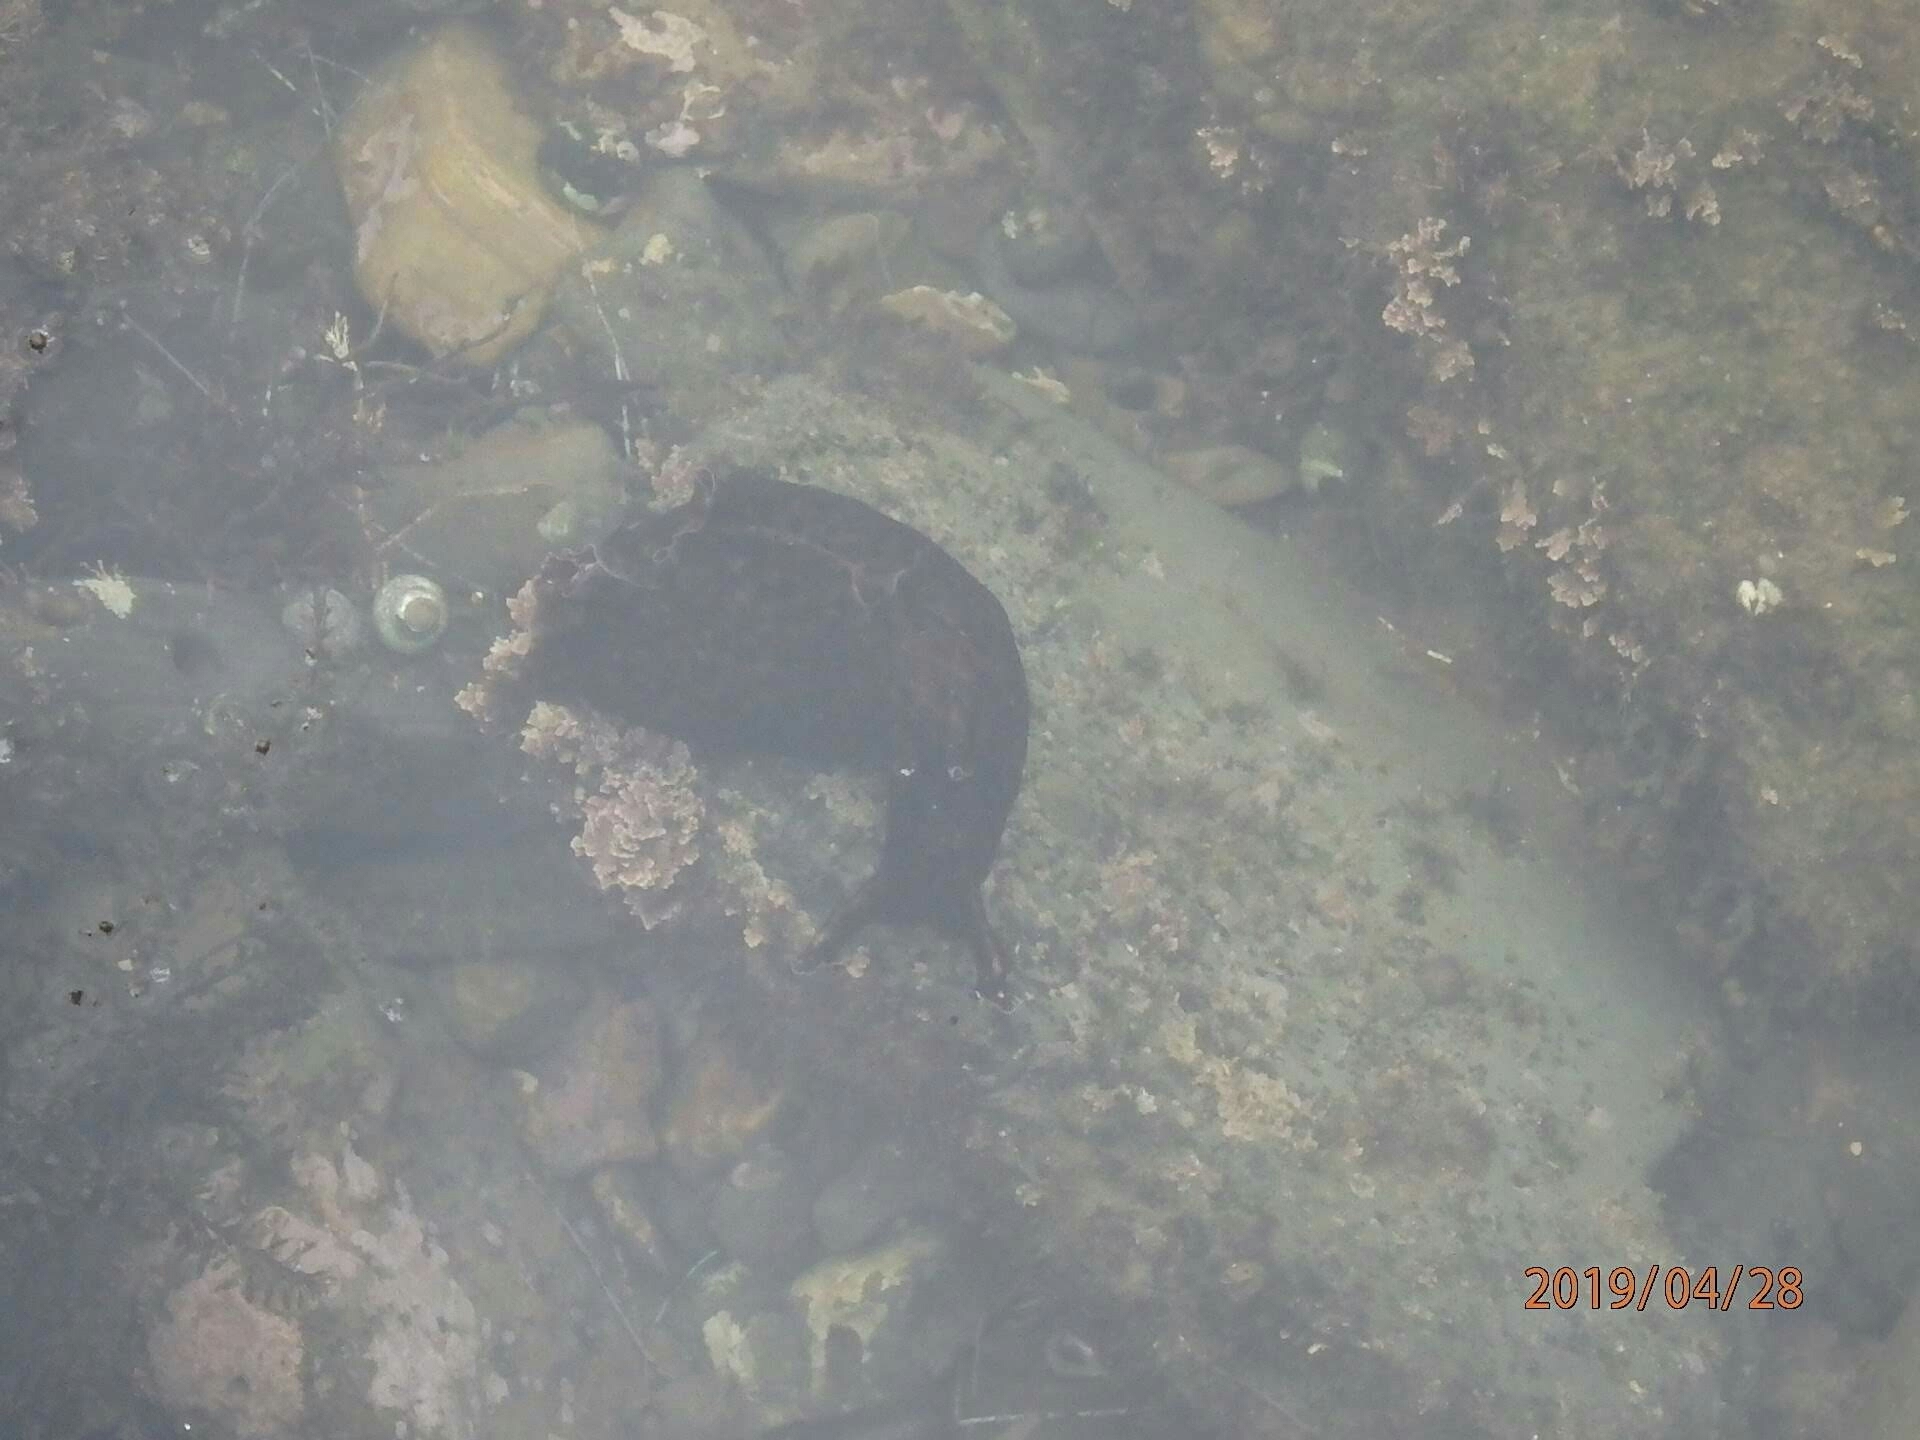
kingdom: Animalia
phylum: Mollusca
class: Gastropoda
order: Aplysiida
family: Aplysiidae
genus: Aplysia
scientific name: Aplysia californica
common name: California seahare
